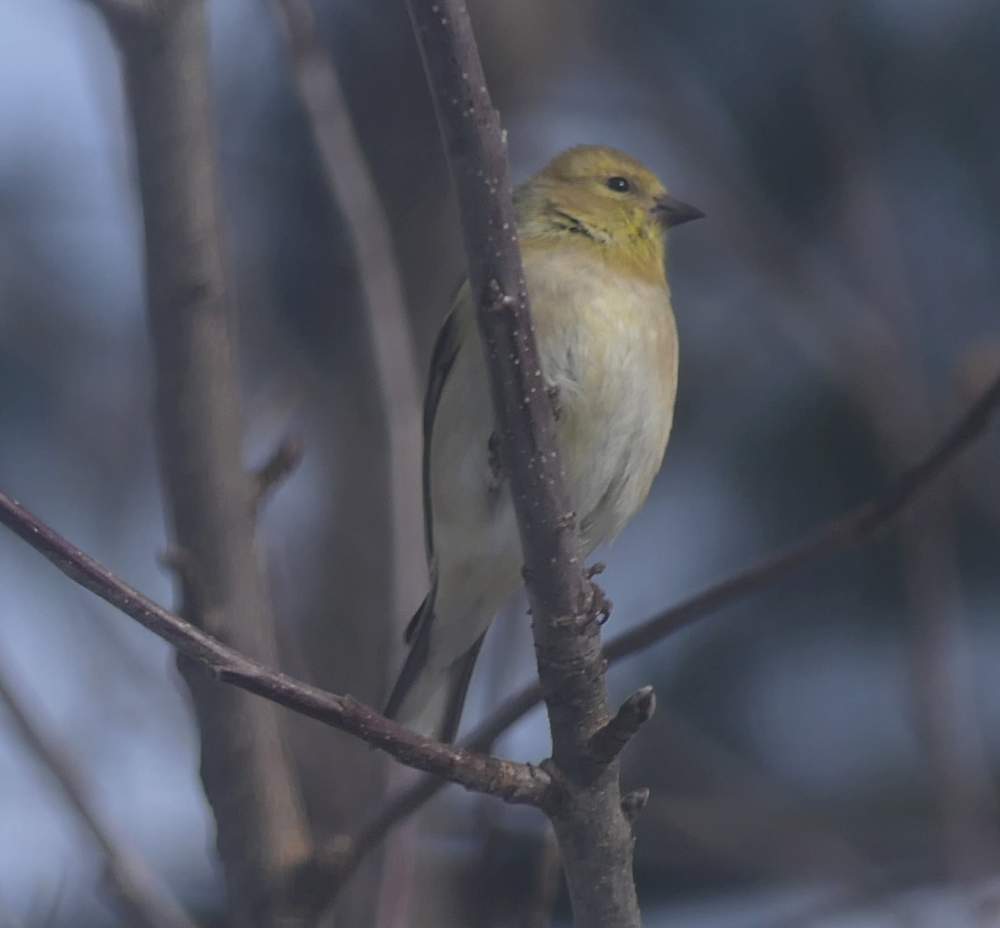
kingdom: Animalia
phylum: Chordata
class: Aves
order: Passeriformes
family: Fringillidae
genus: Spinus
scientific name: Spinus tristis
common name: American goldfinch
